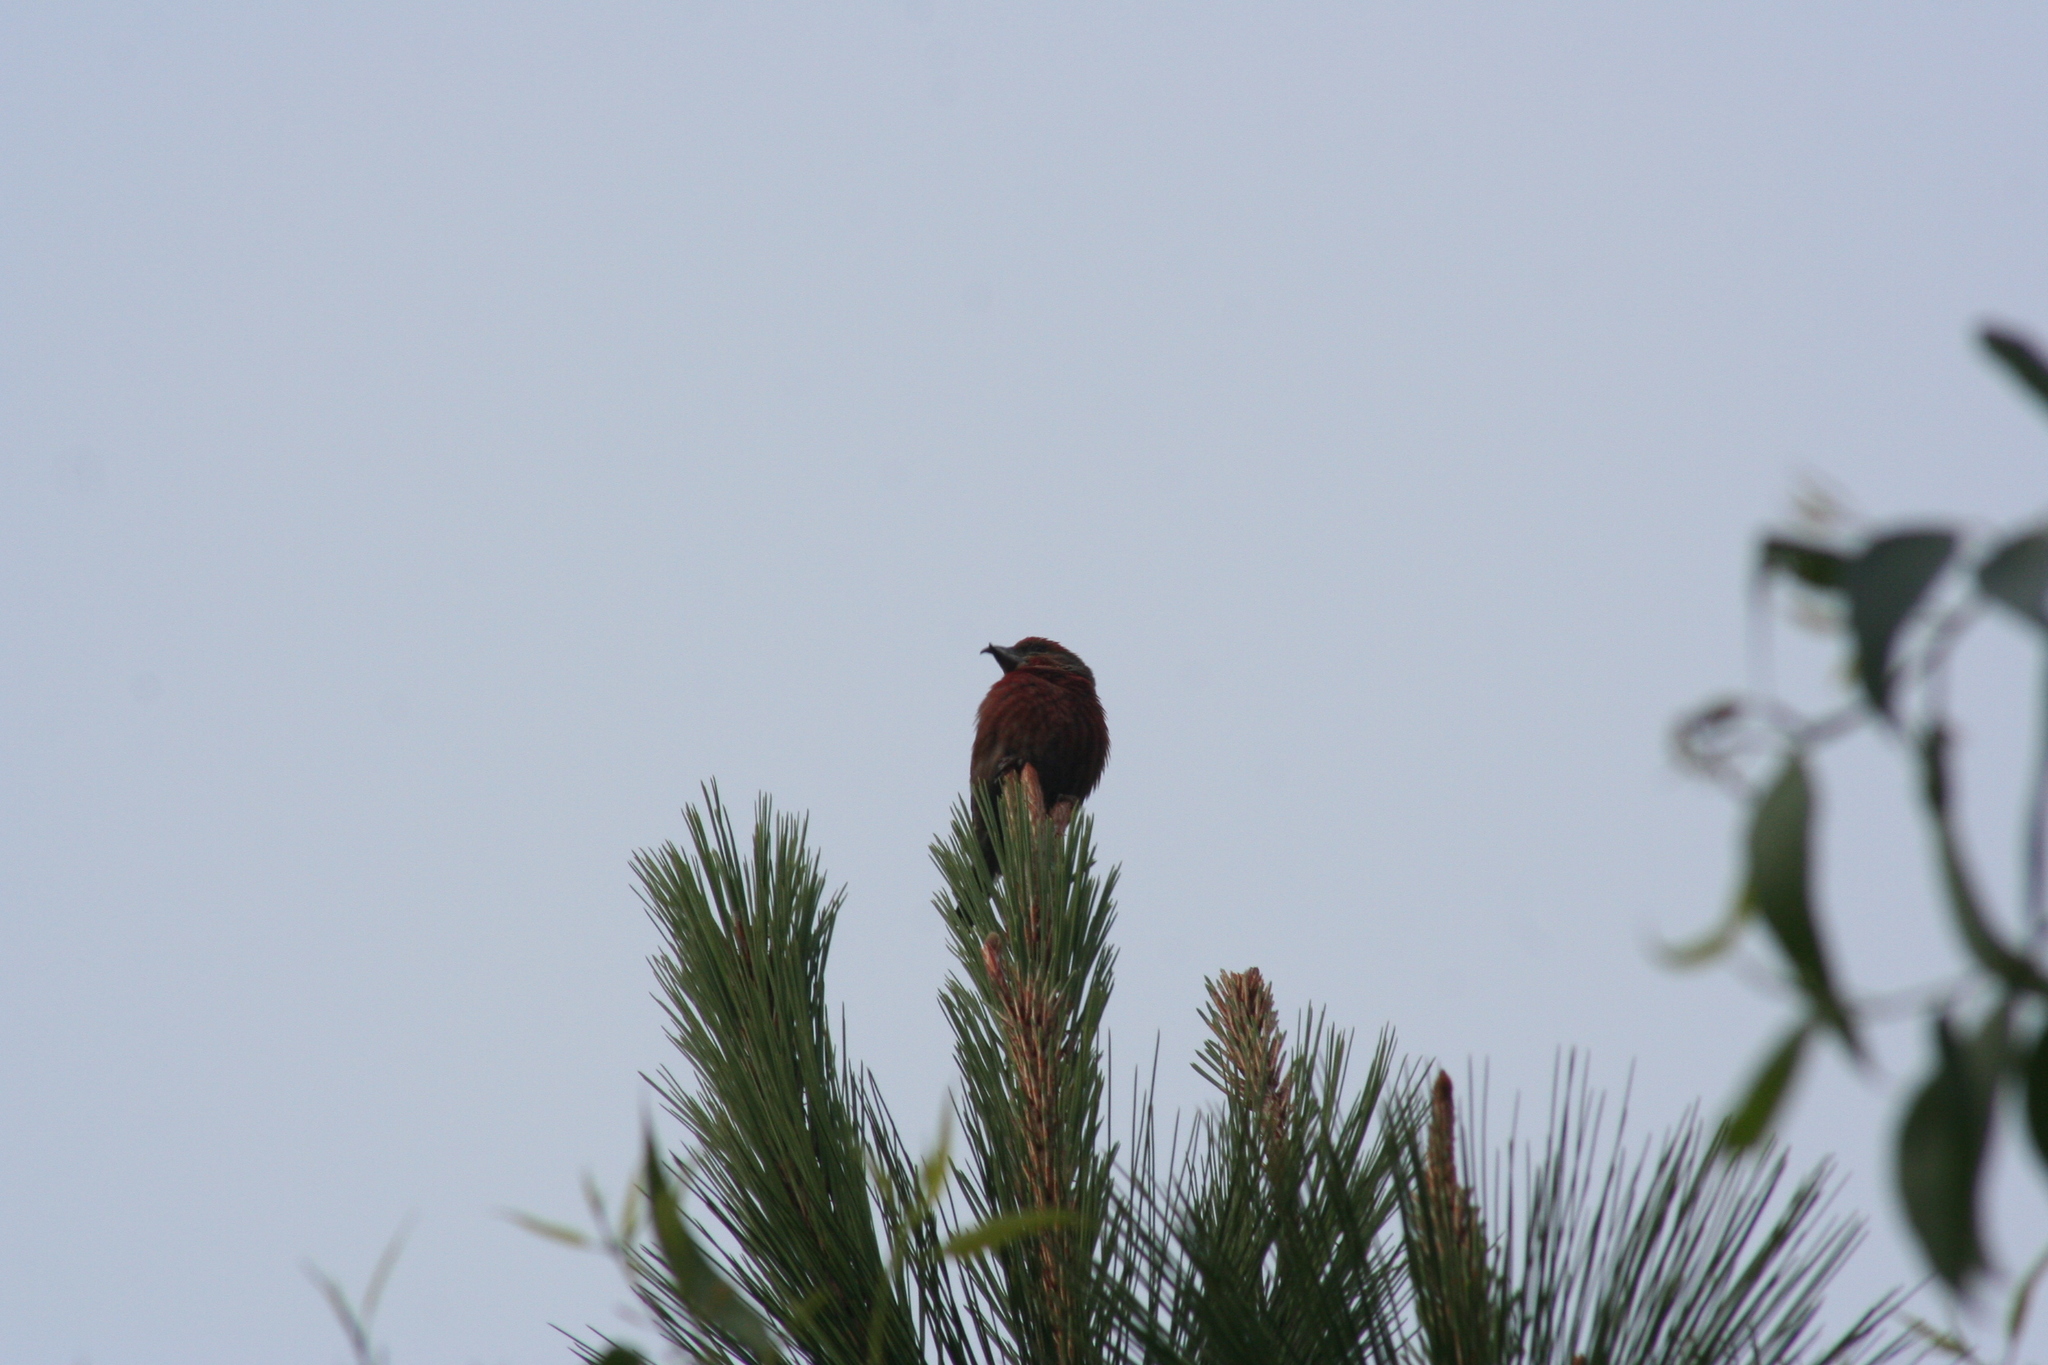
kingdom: Animalia
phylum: Chordata
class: Aves
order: Passeriformes
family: Fringillidae
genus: Loxia
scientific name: Loxia curvirostra
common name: Red crossbill
